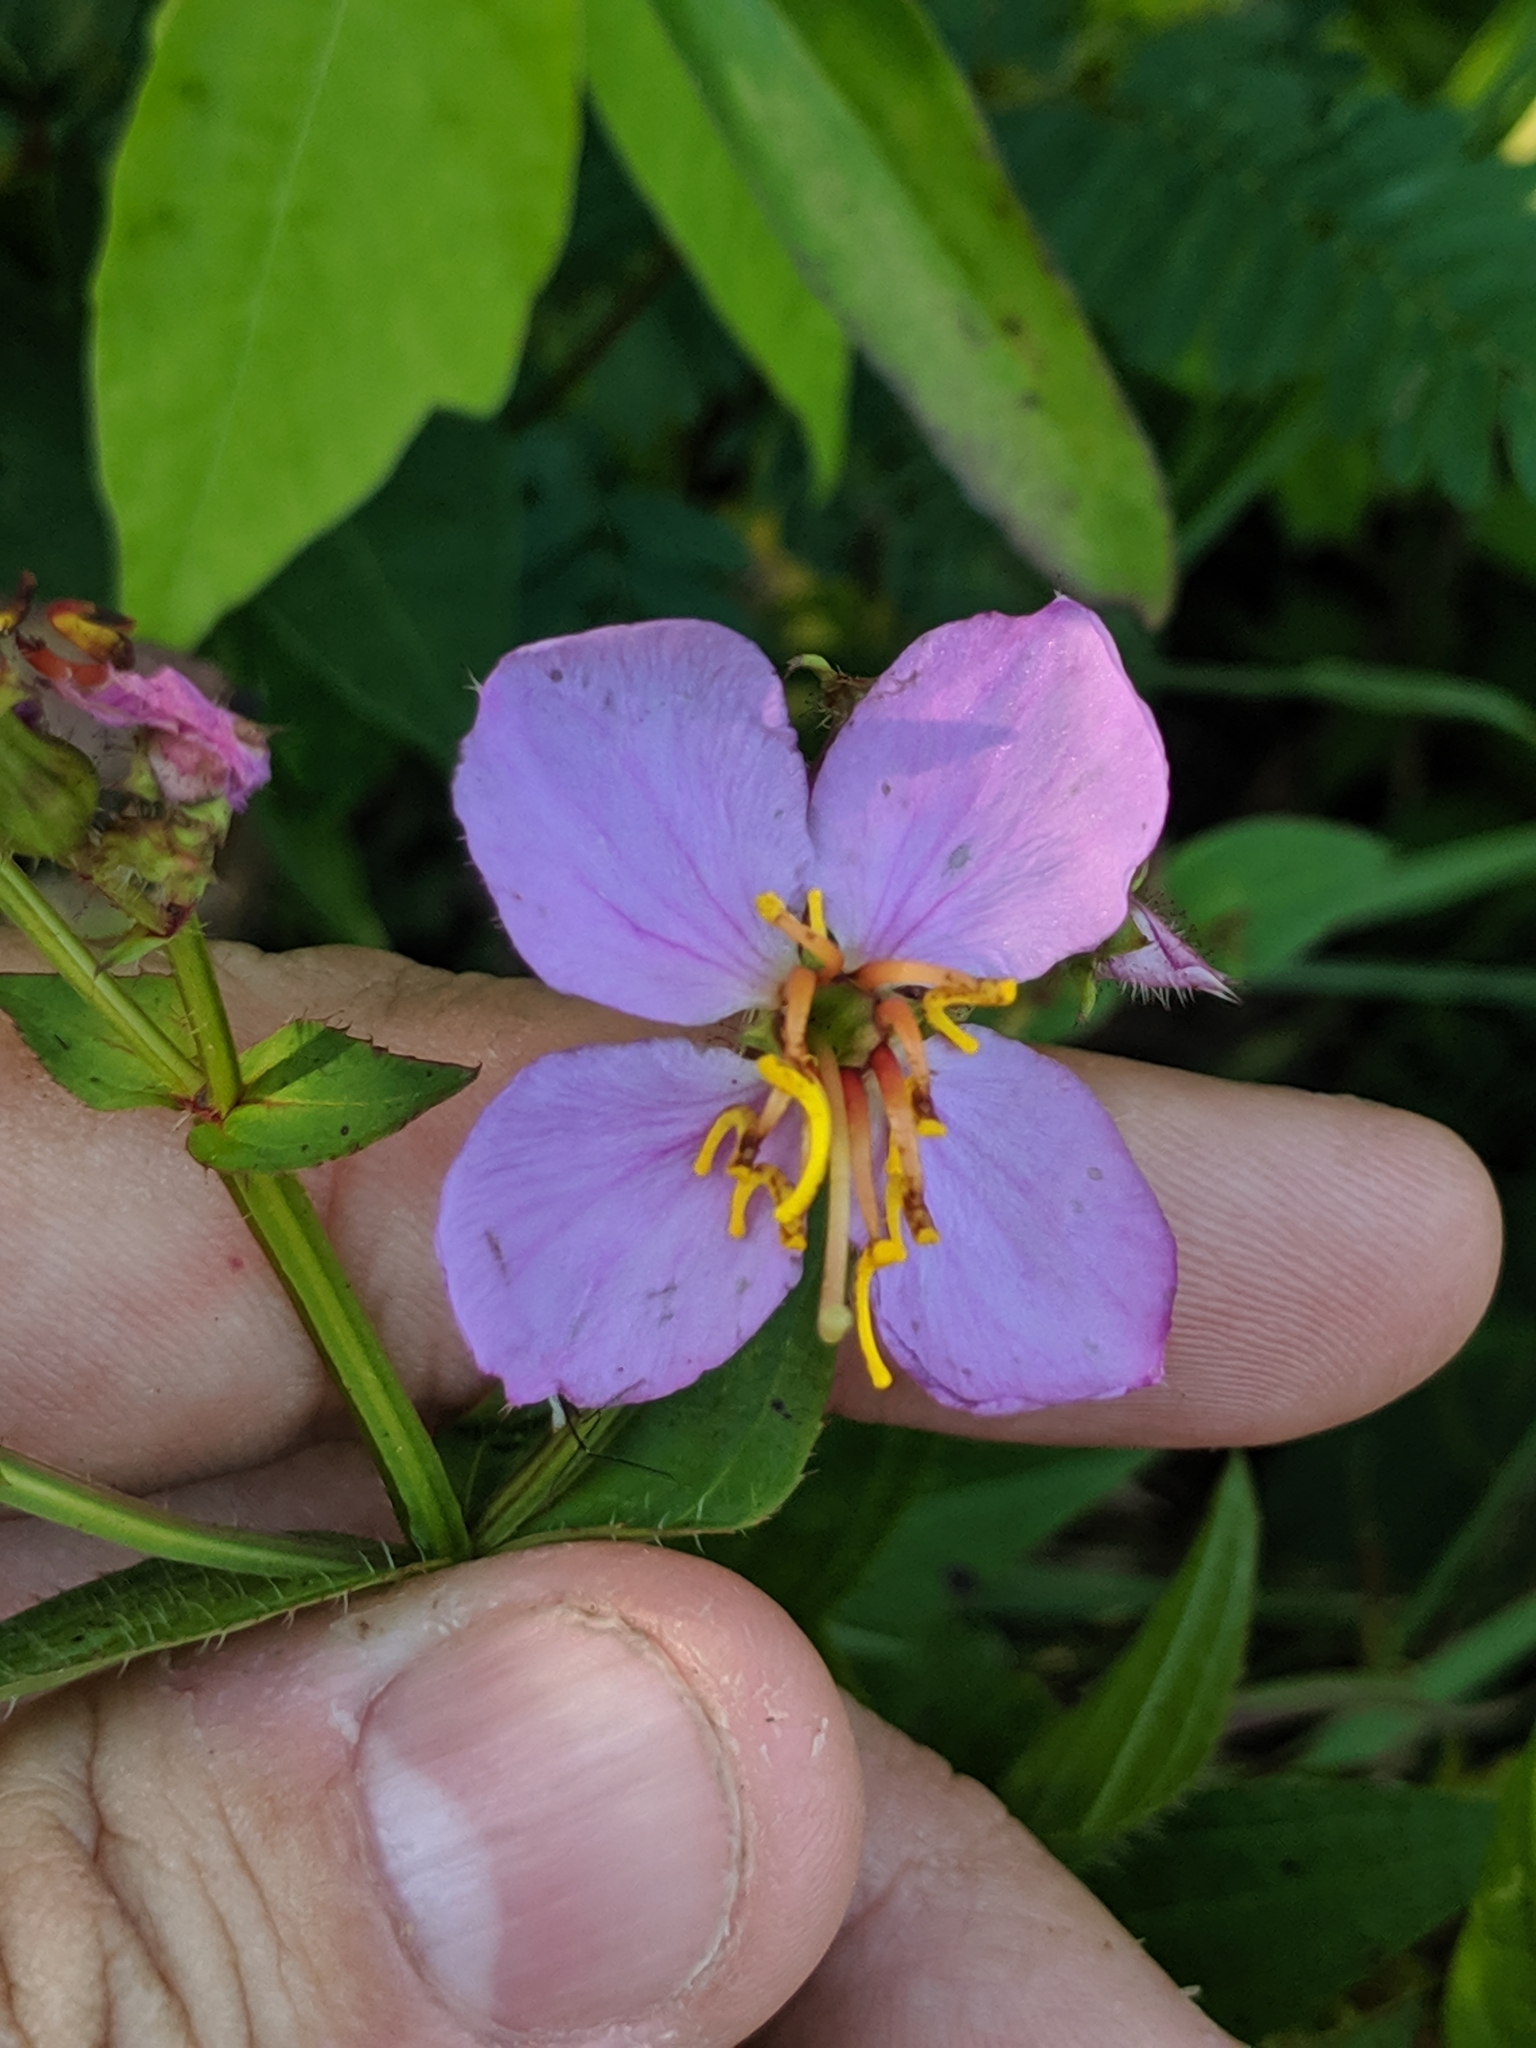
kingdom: Plantae
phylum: Tracheophyta
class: Magnoliopsida
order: Myrtales
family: Melastomataceae
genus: Rhexia
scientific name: Rhexia virginica
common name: Common meadow beauty
